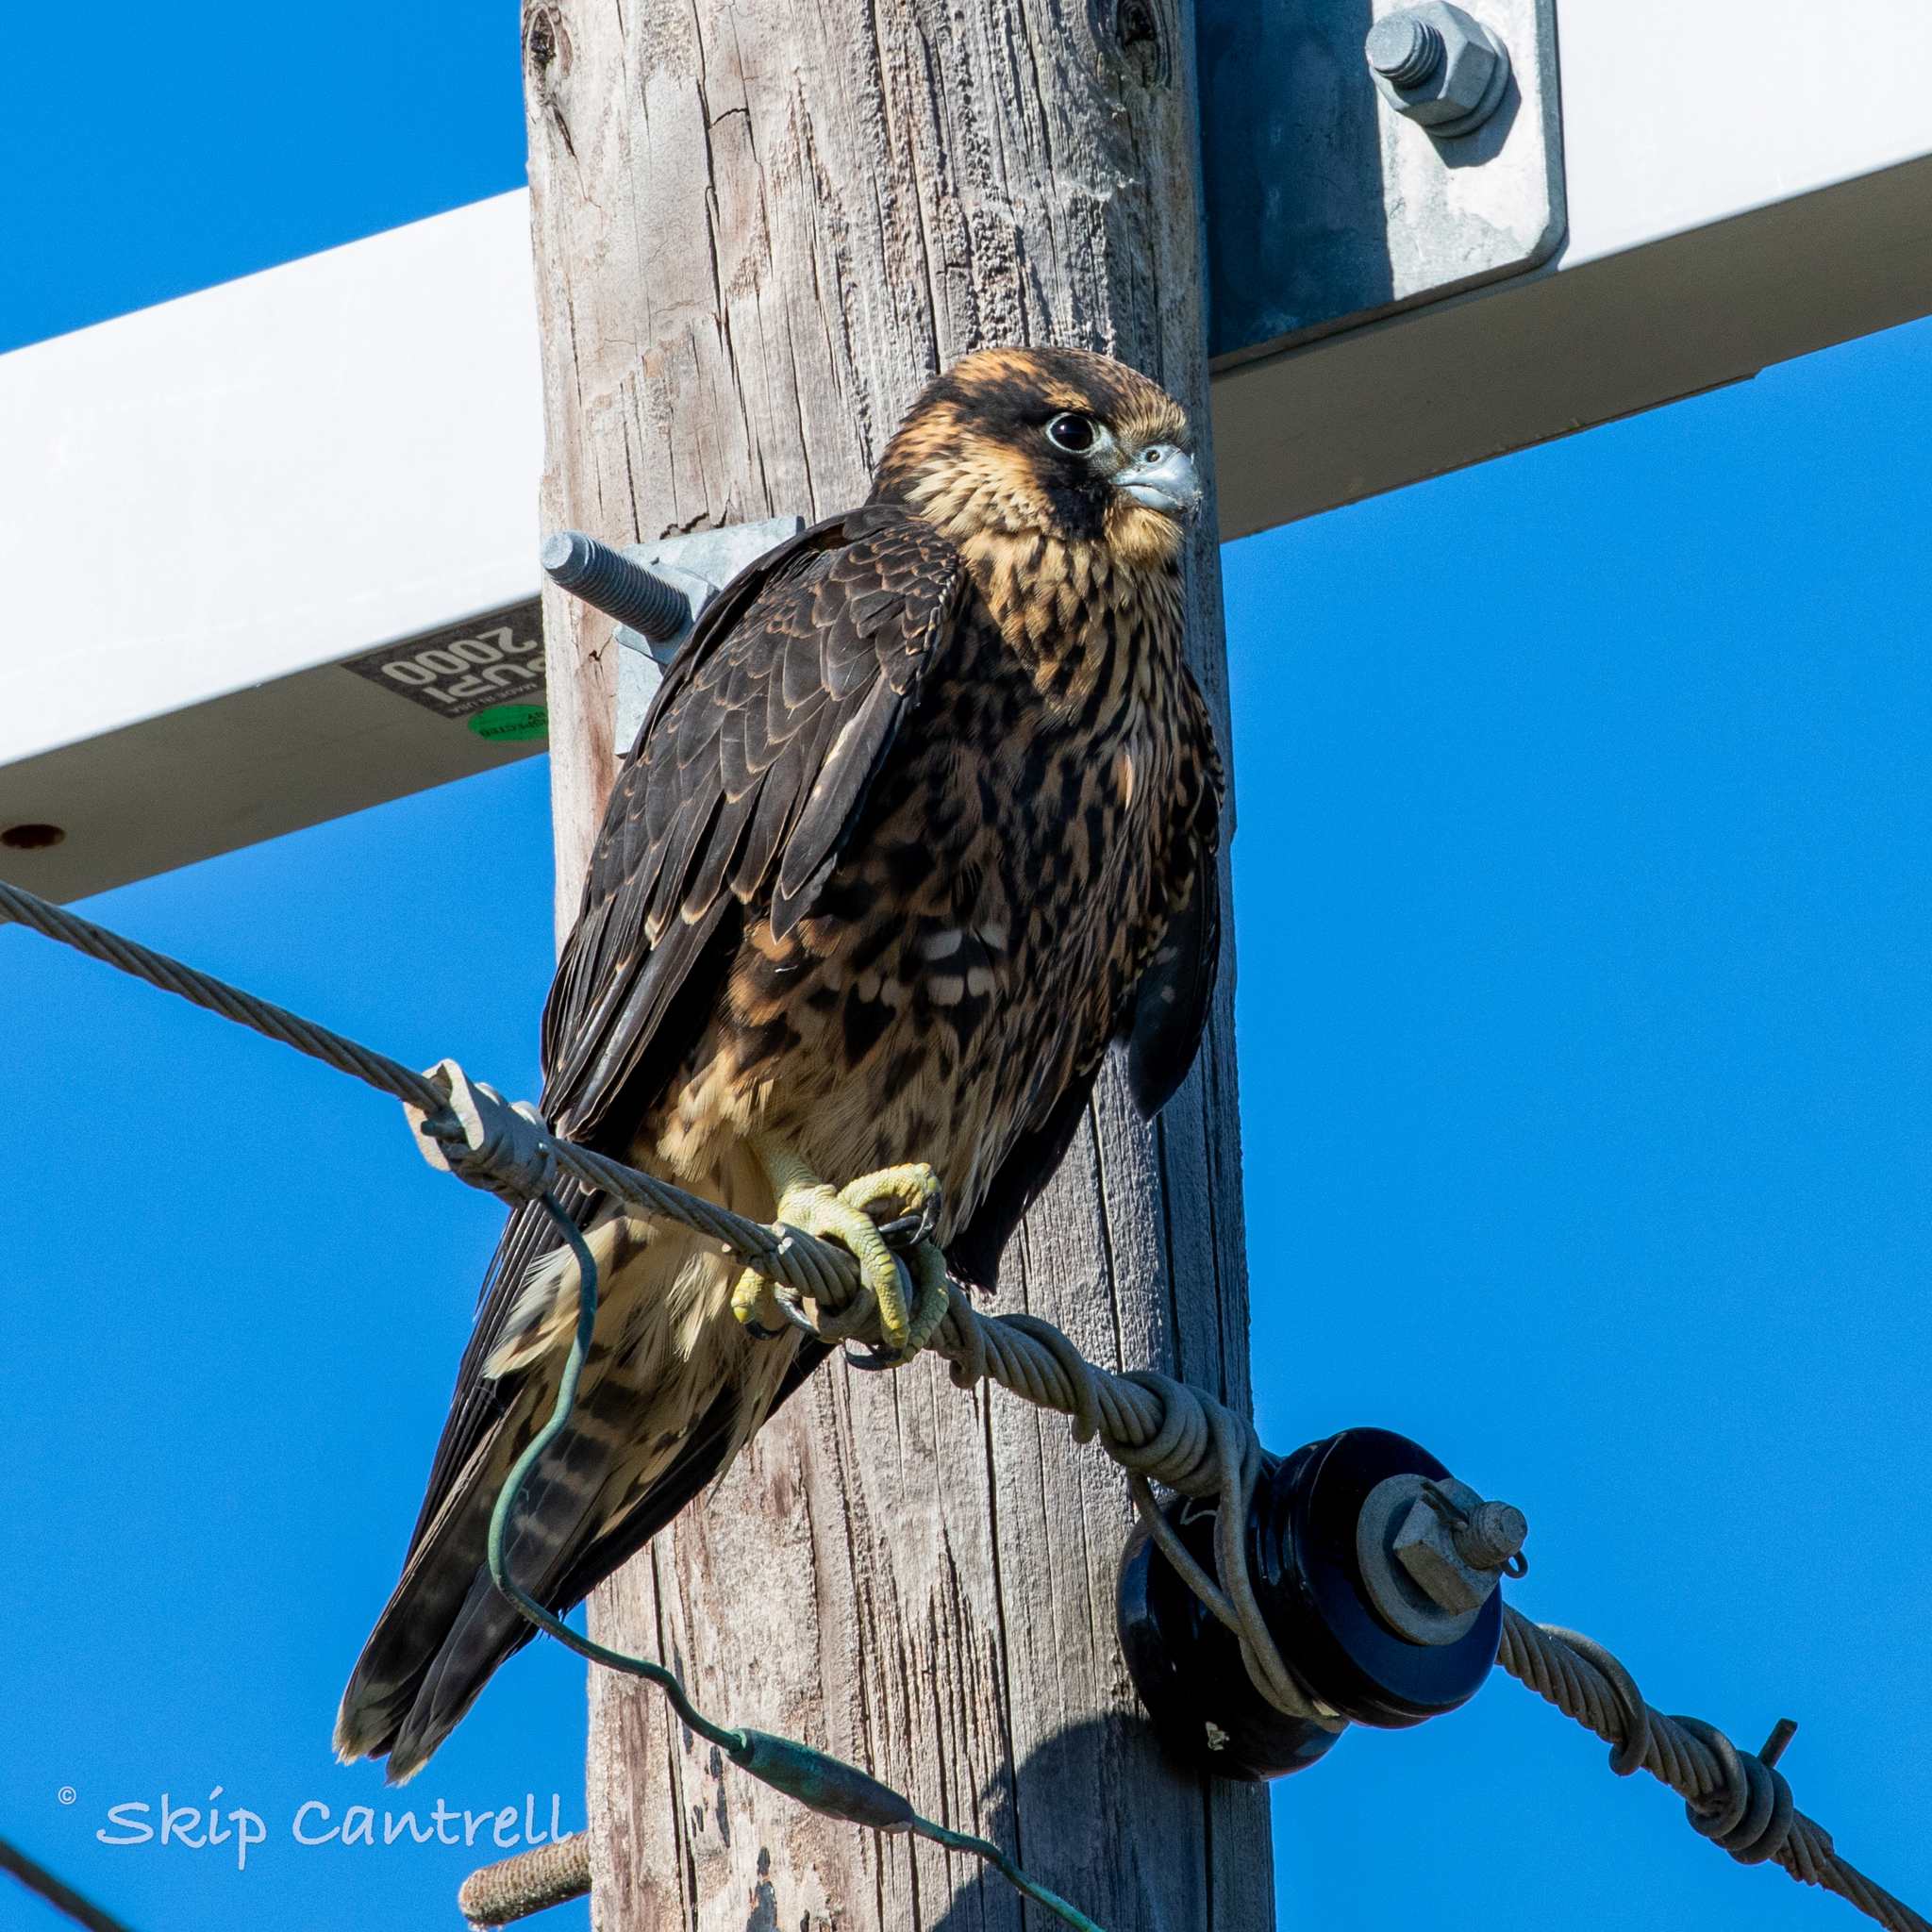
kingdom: Animalia
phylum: Chordata
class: Aves
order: Falconiformes
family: Falconidae
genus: Falco
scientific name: Falco peregrinus
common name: Peregrine falcon
